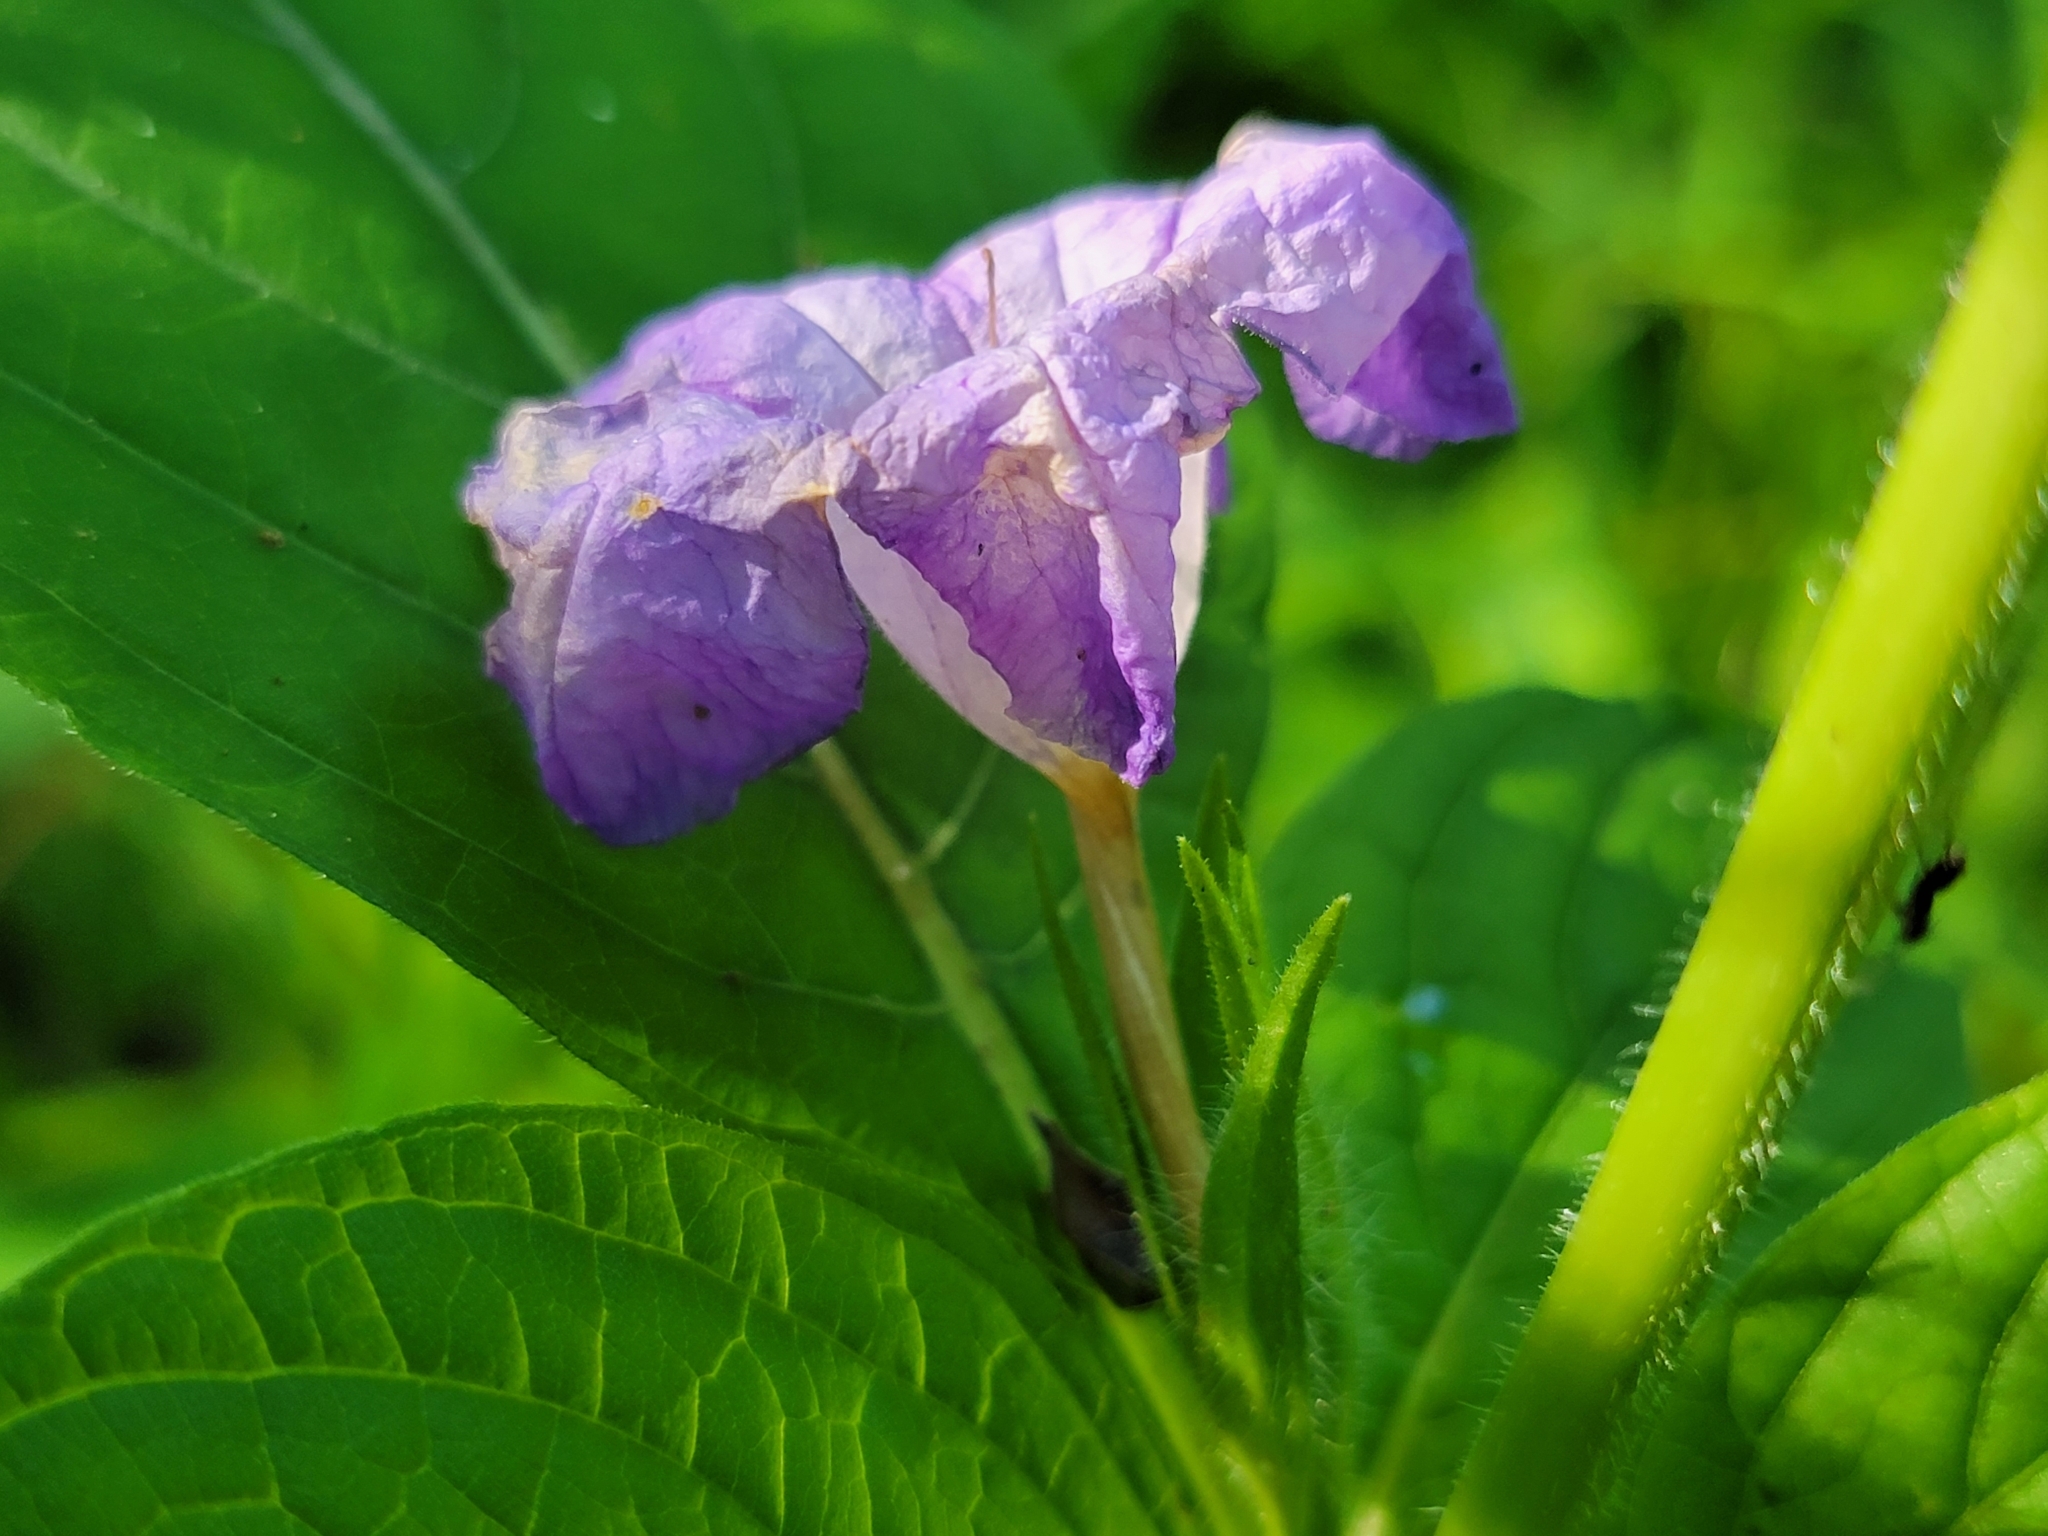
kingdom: Plantae
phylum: Tracheophyta
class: Magnoliopsida
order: Lamiales
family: Acanthaceae
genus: Ruellia
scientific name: Ruellia strepens
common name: Limestone wild petunia
